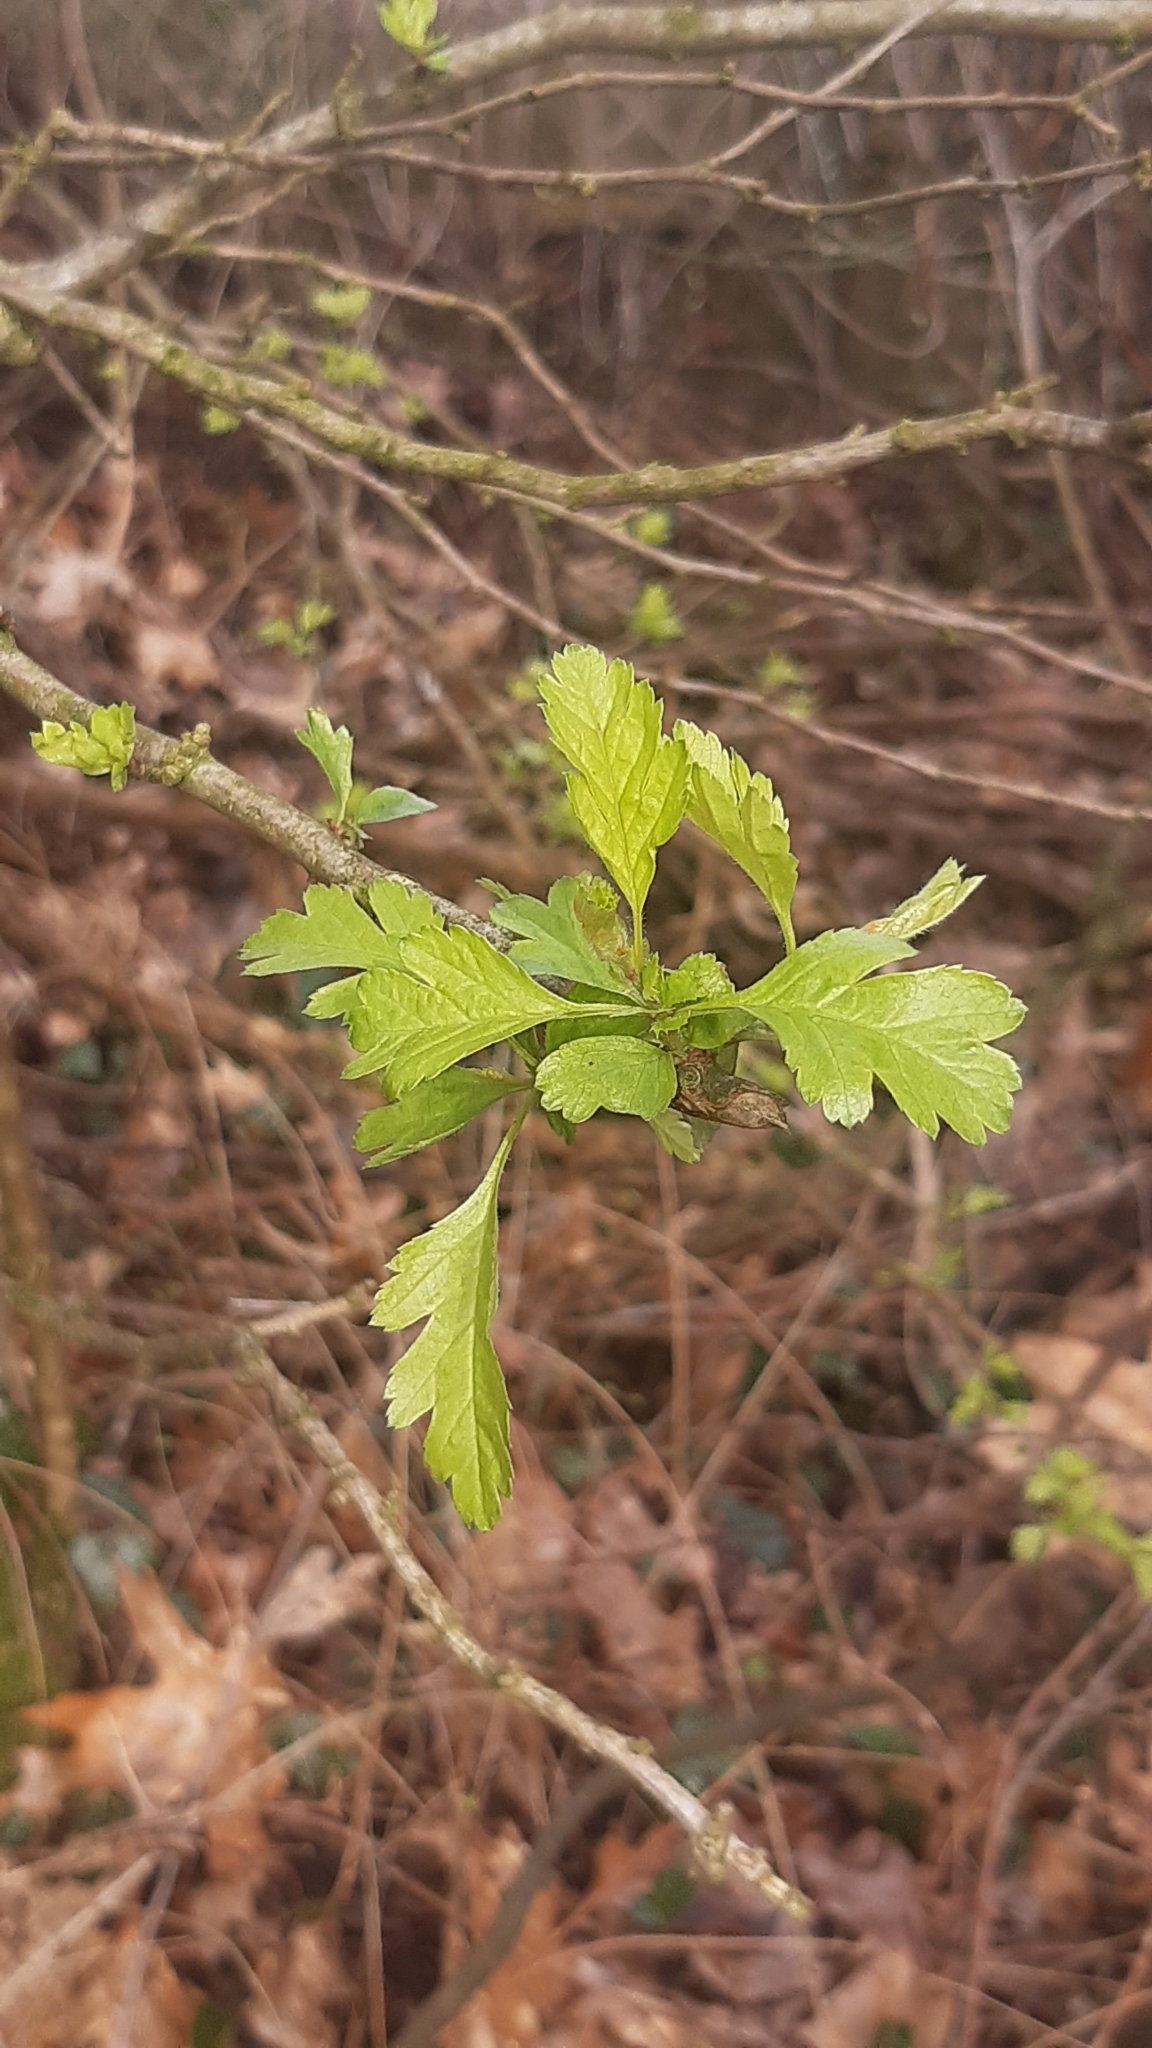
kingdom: Plantae
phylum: Tracheophyta
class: Magnoliopsida
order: Rosales
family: Rosaceae
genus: Crataegus
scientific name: Crataegus monogyna
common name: Hawthorn
